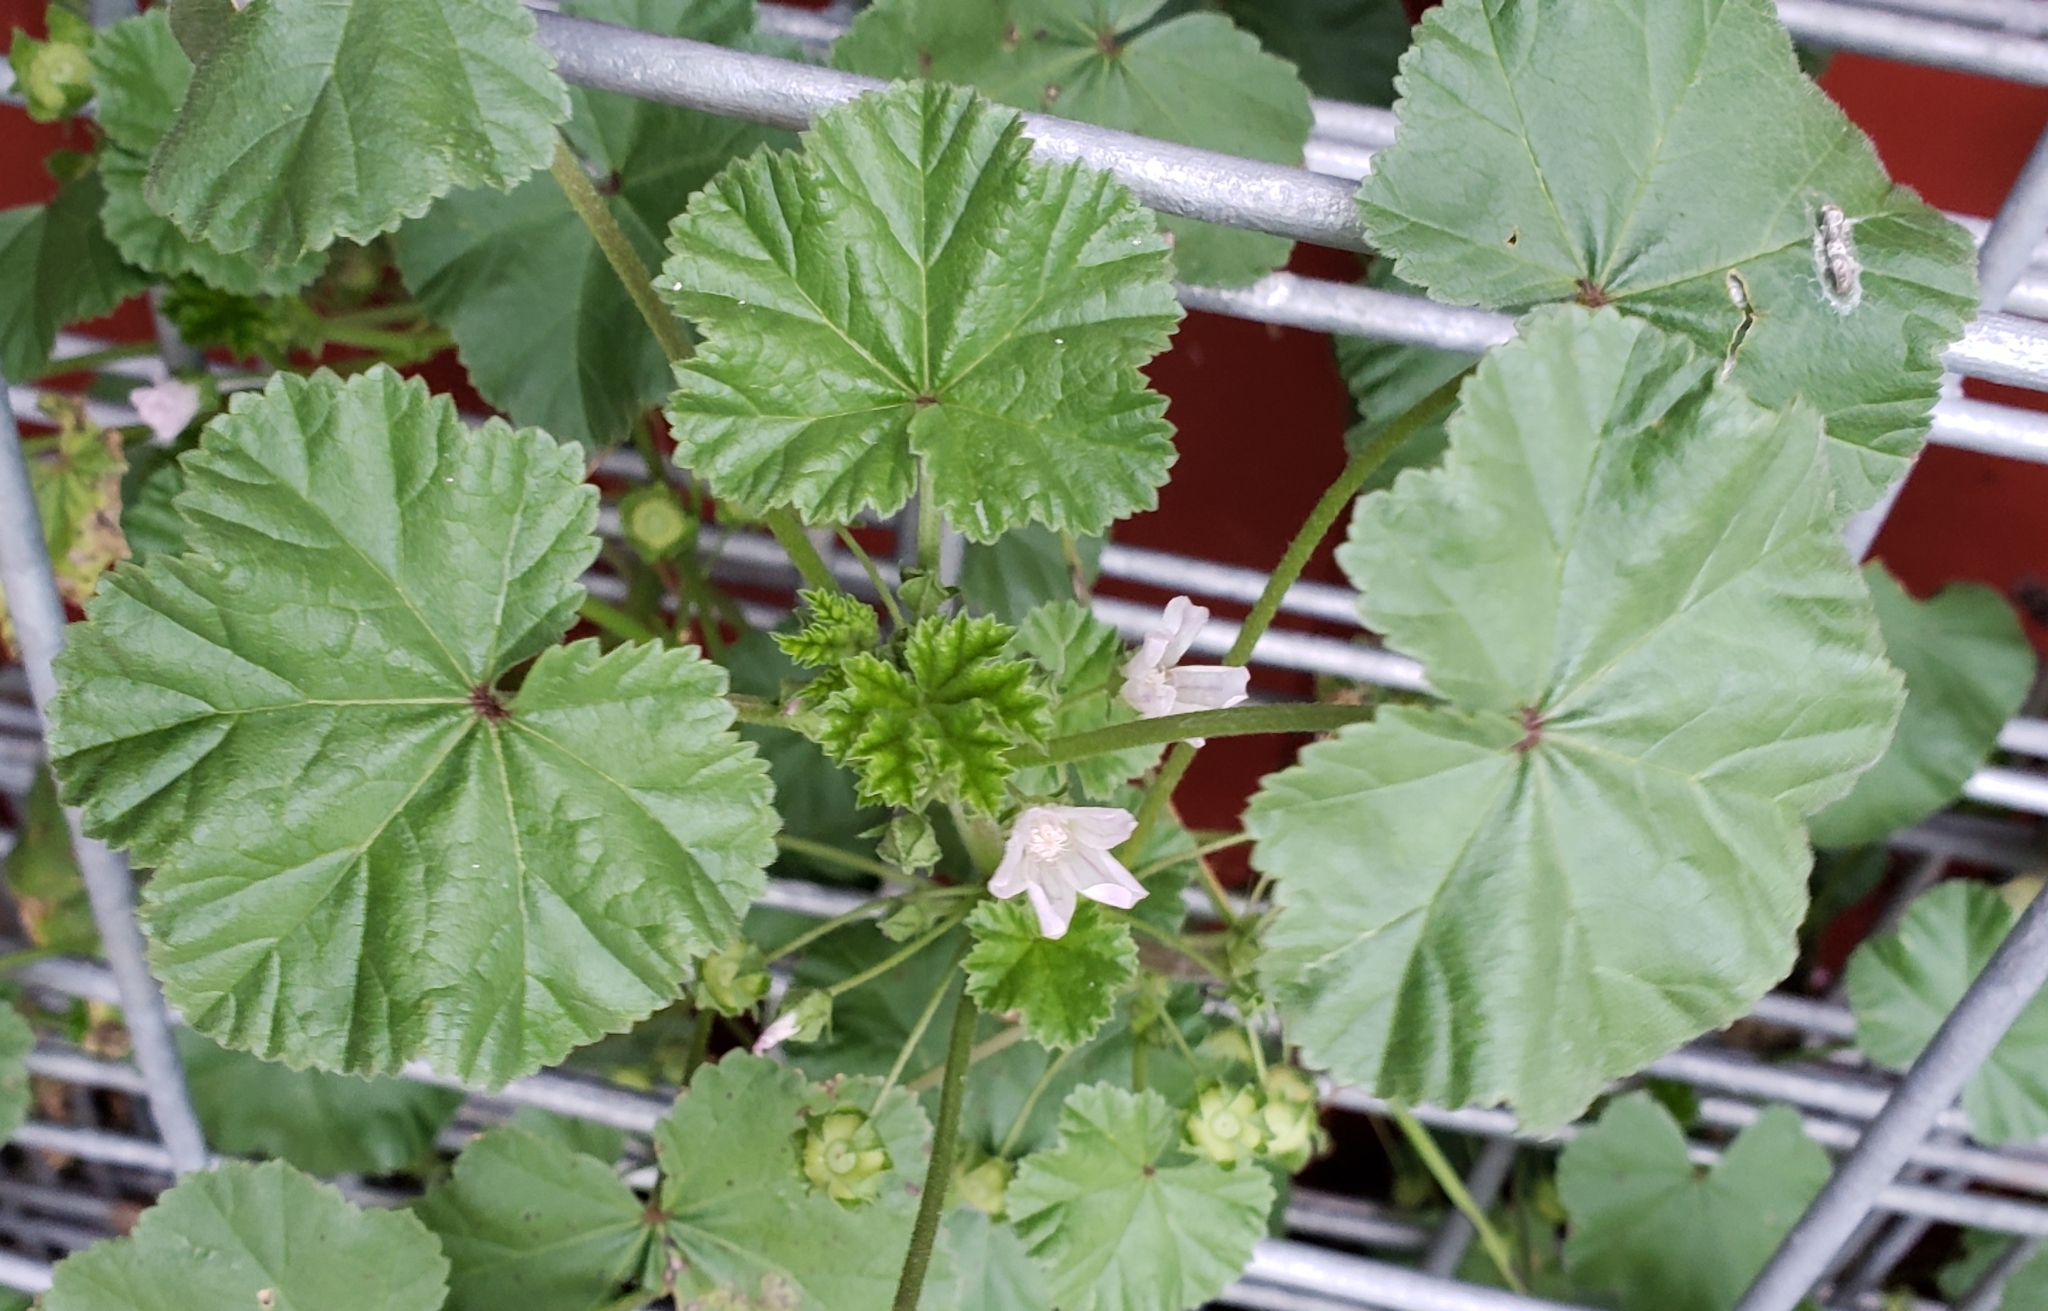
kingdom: Plantae
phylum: Tracheophyta
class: Magnoliopsida
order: Malvales
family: Malvaceae
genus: Malva
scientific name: Malva neglecta
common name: Common mallow
